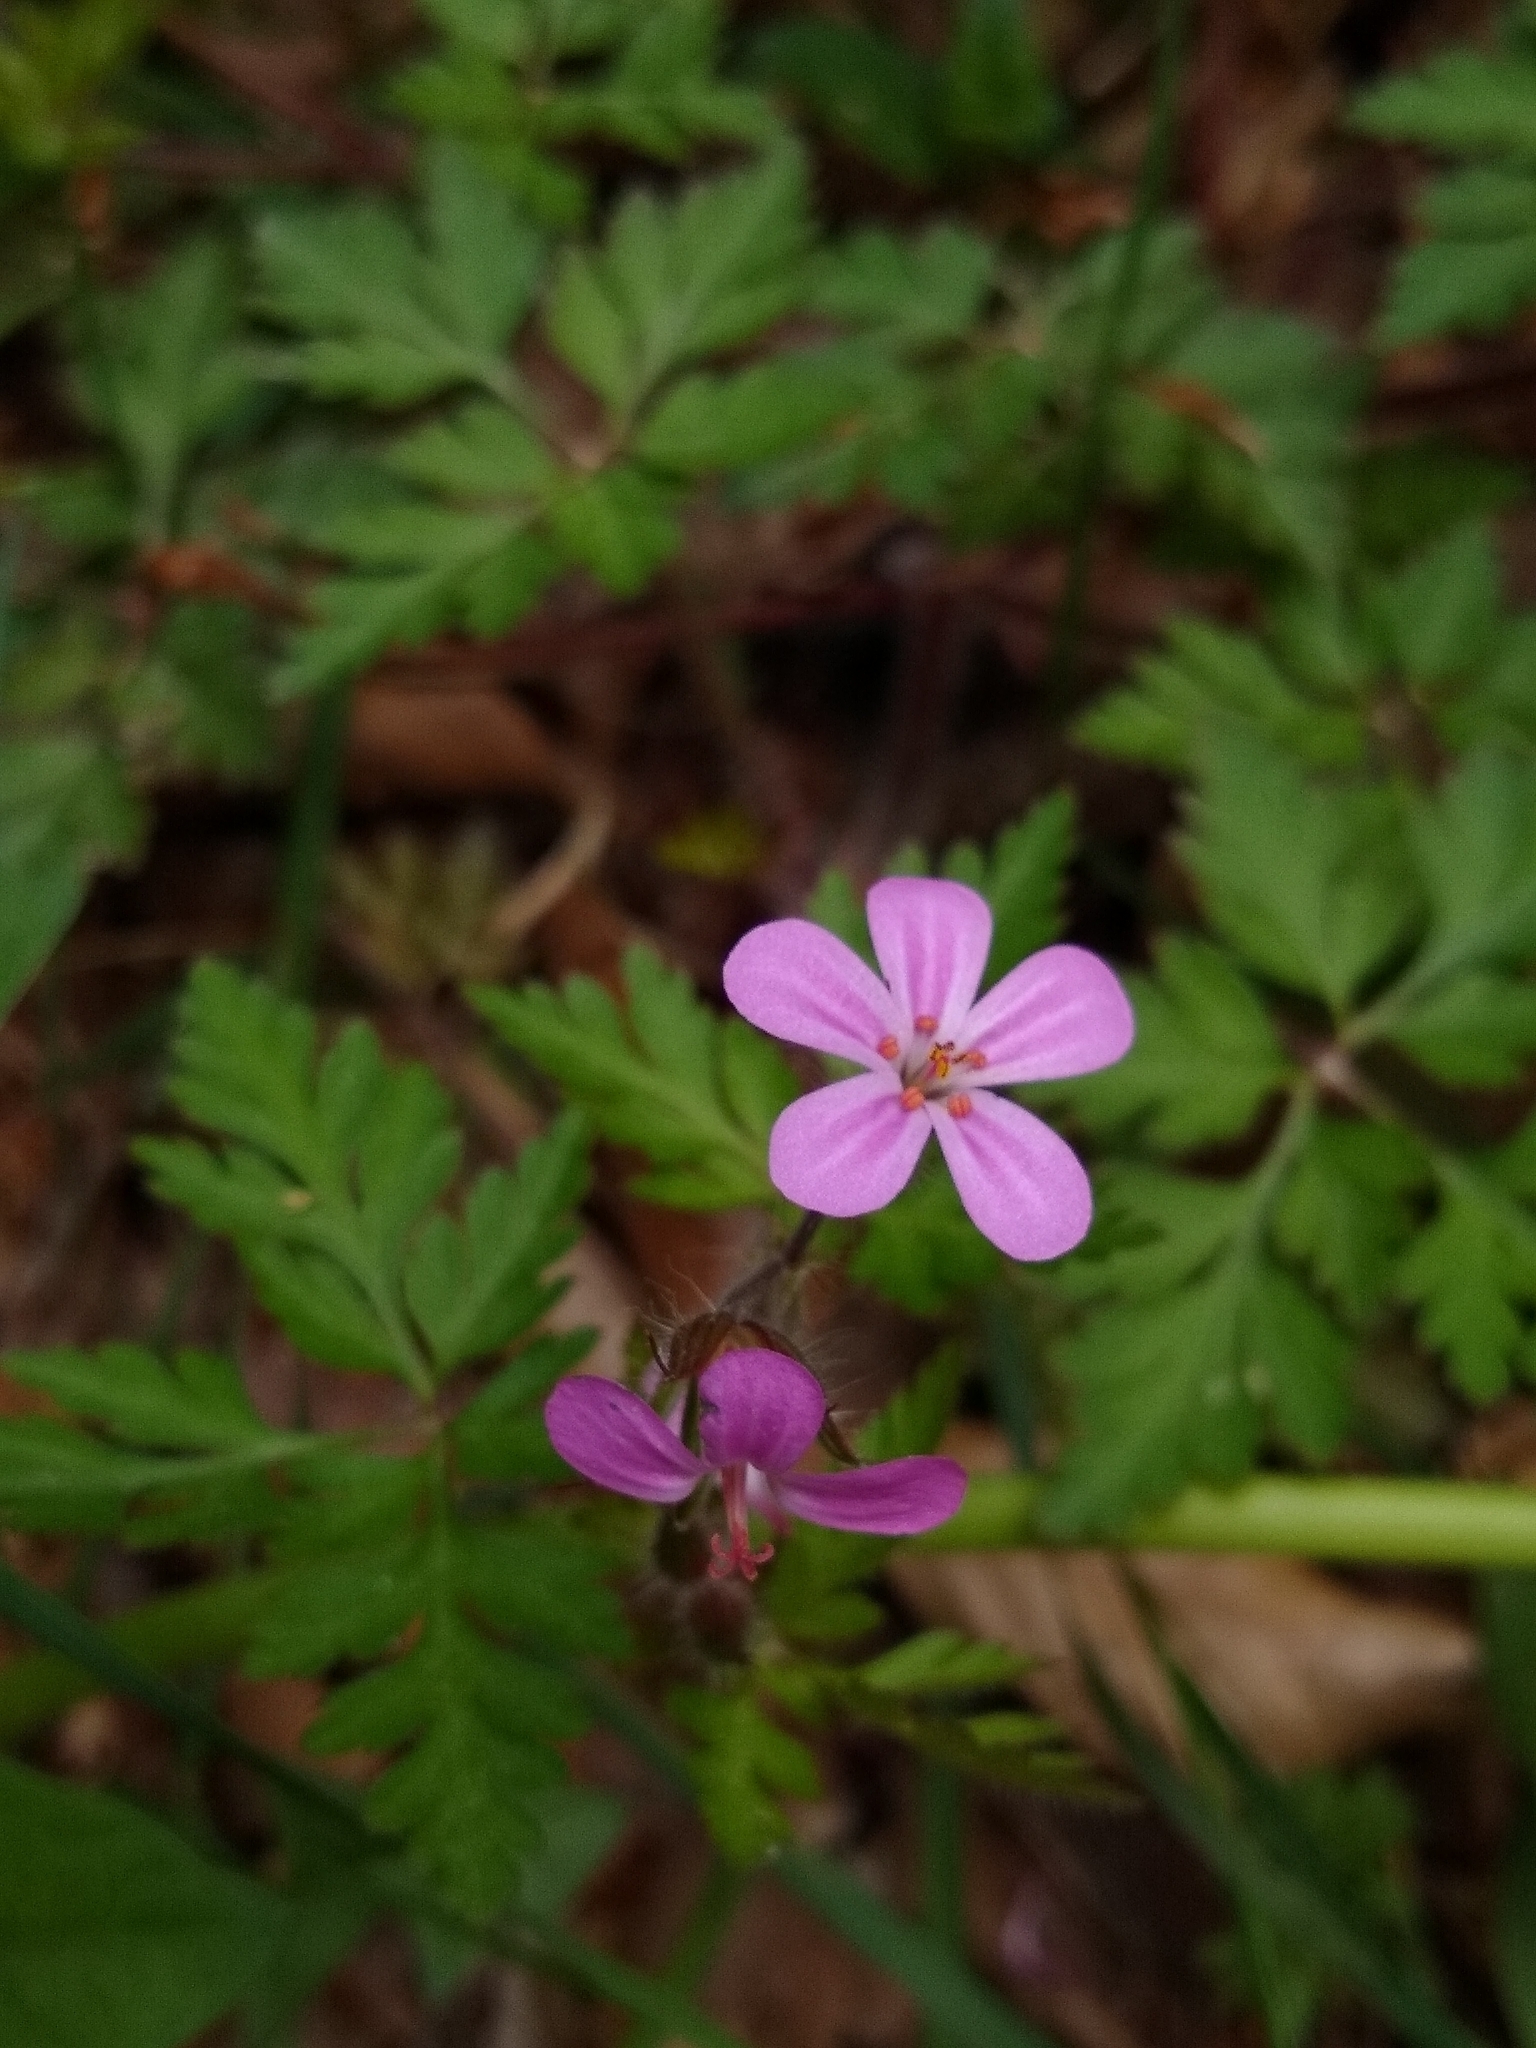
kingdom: Plantae
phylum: Tracheophyta
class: Magnoliopsida
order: Geraniales
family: Geraniaceae
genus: Geranium
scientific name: Geranium robertianum
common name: Herb-robert
